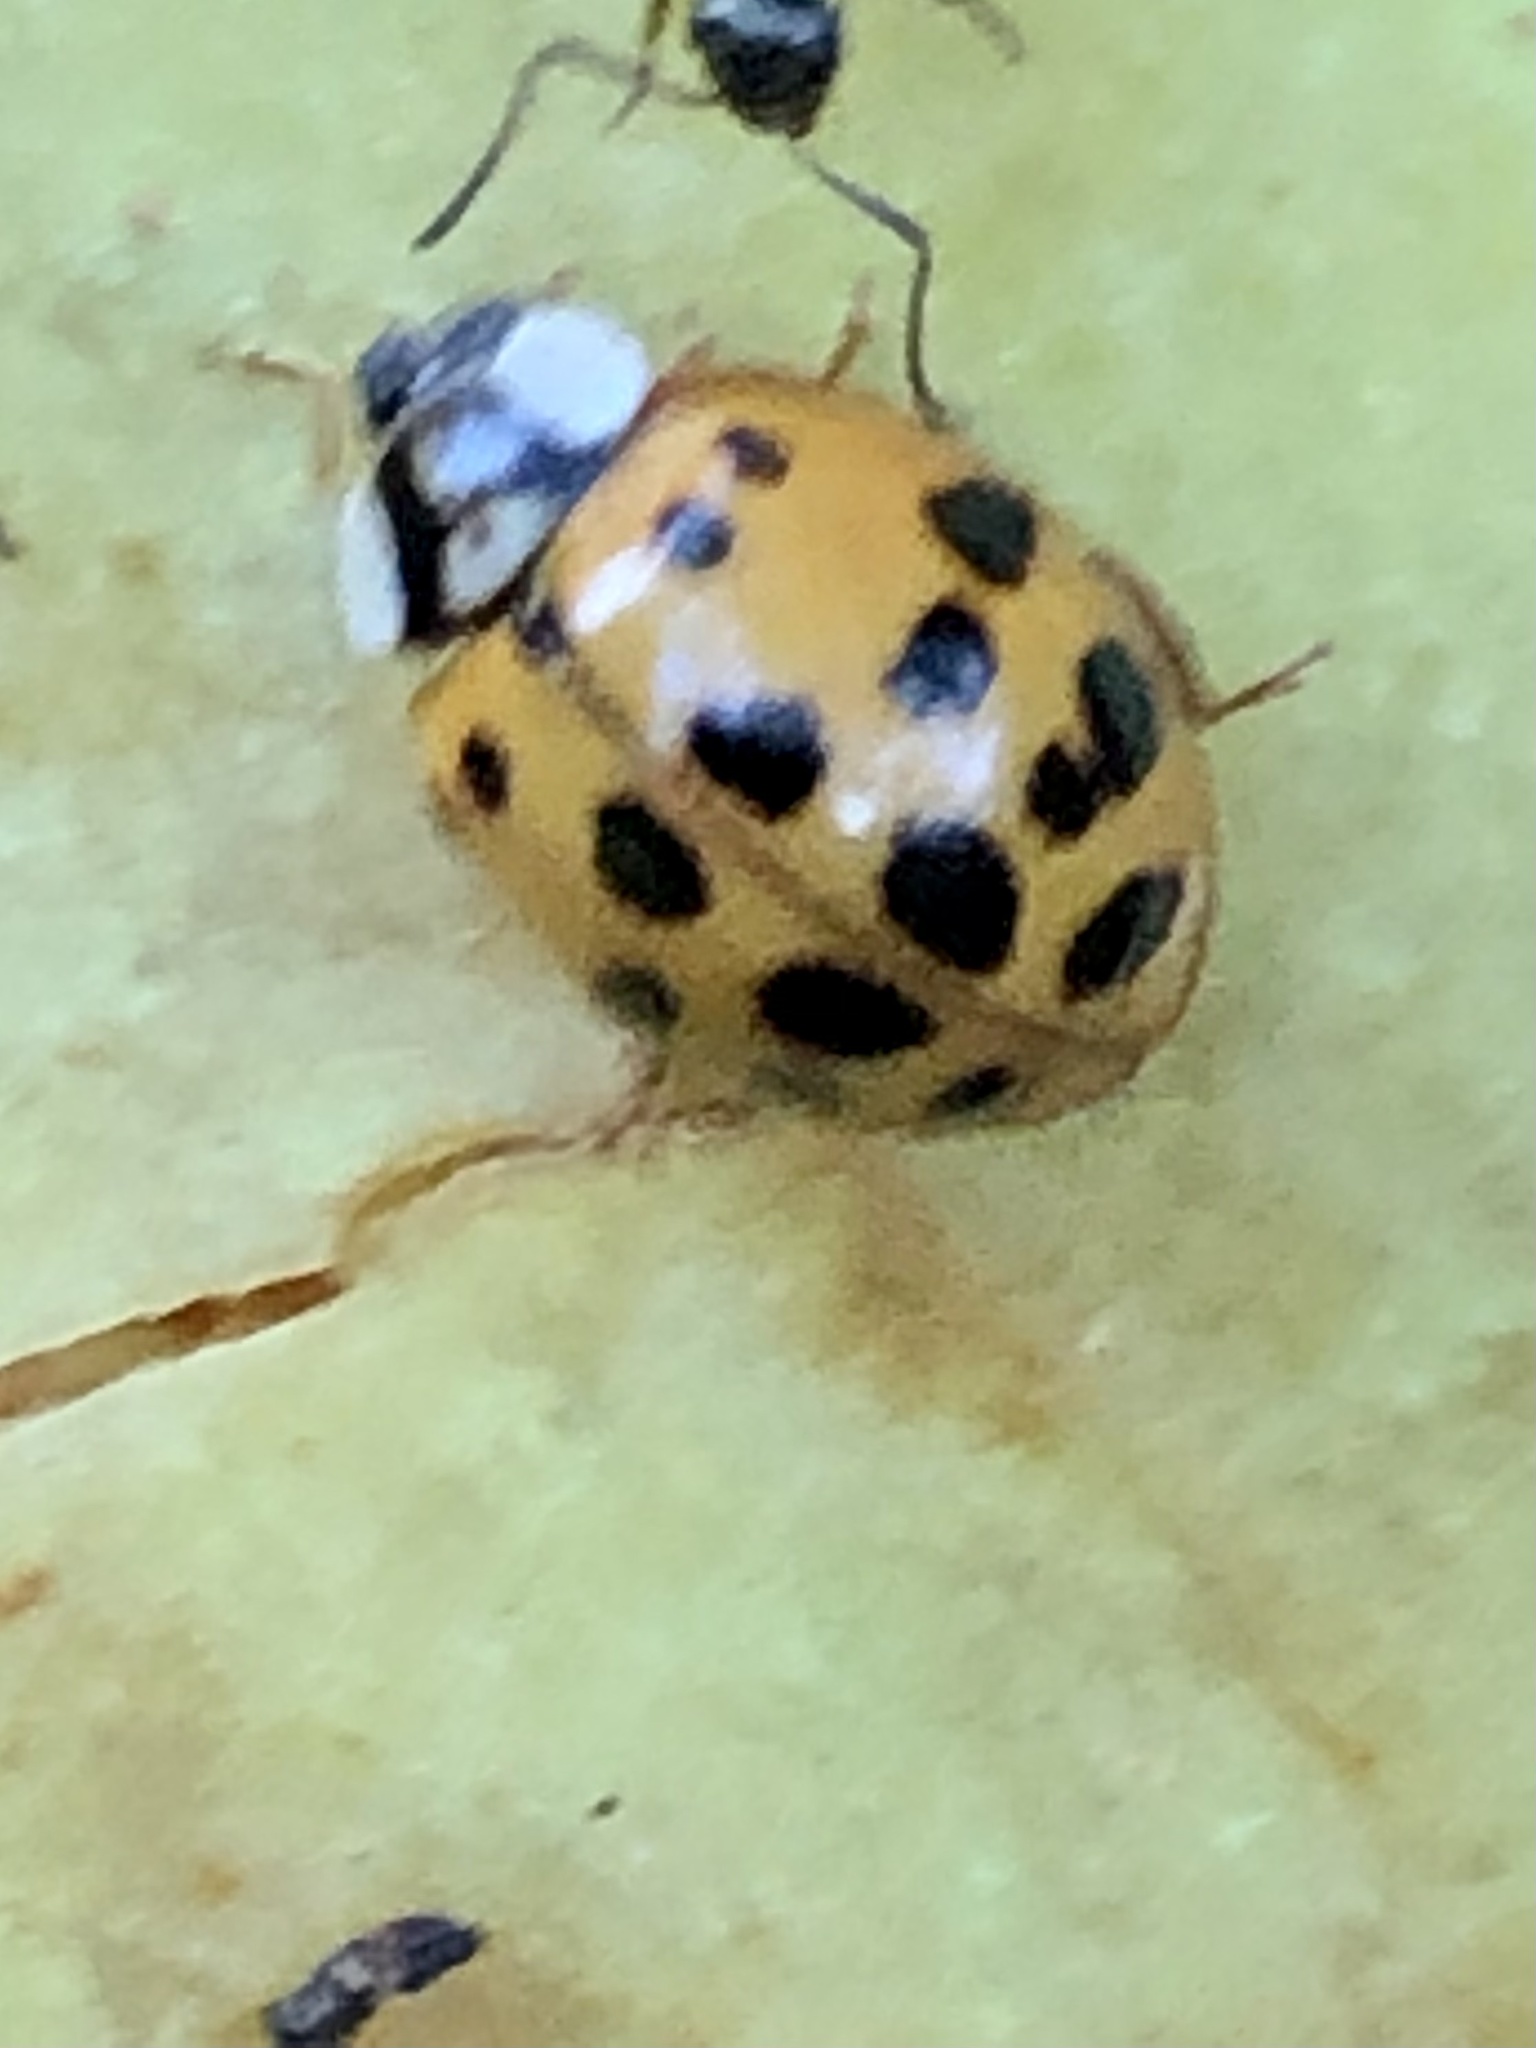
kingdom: Animalia
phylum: Arthropoda
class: Insecta
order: Coleoptera
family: Coccinellidae
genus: Harmonia
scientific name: Harmonia axyridis
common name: Harlequin ladybird
